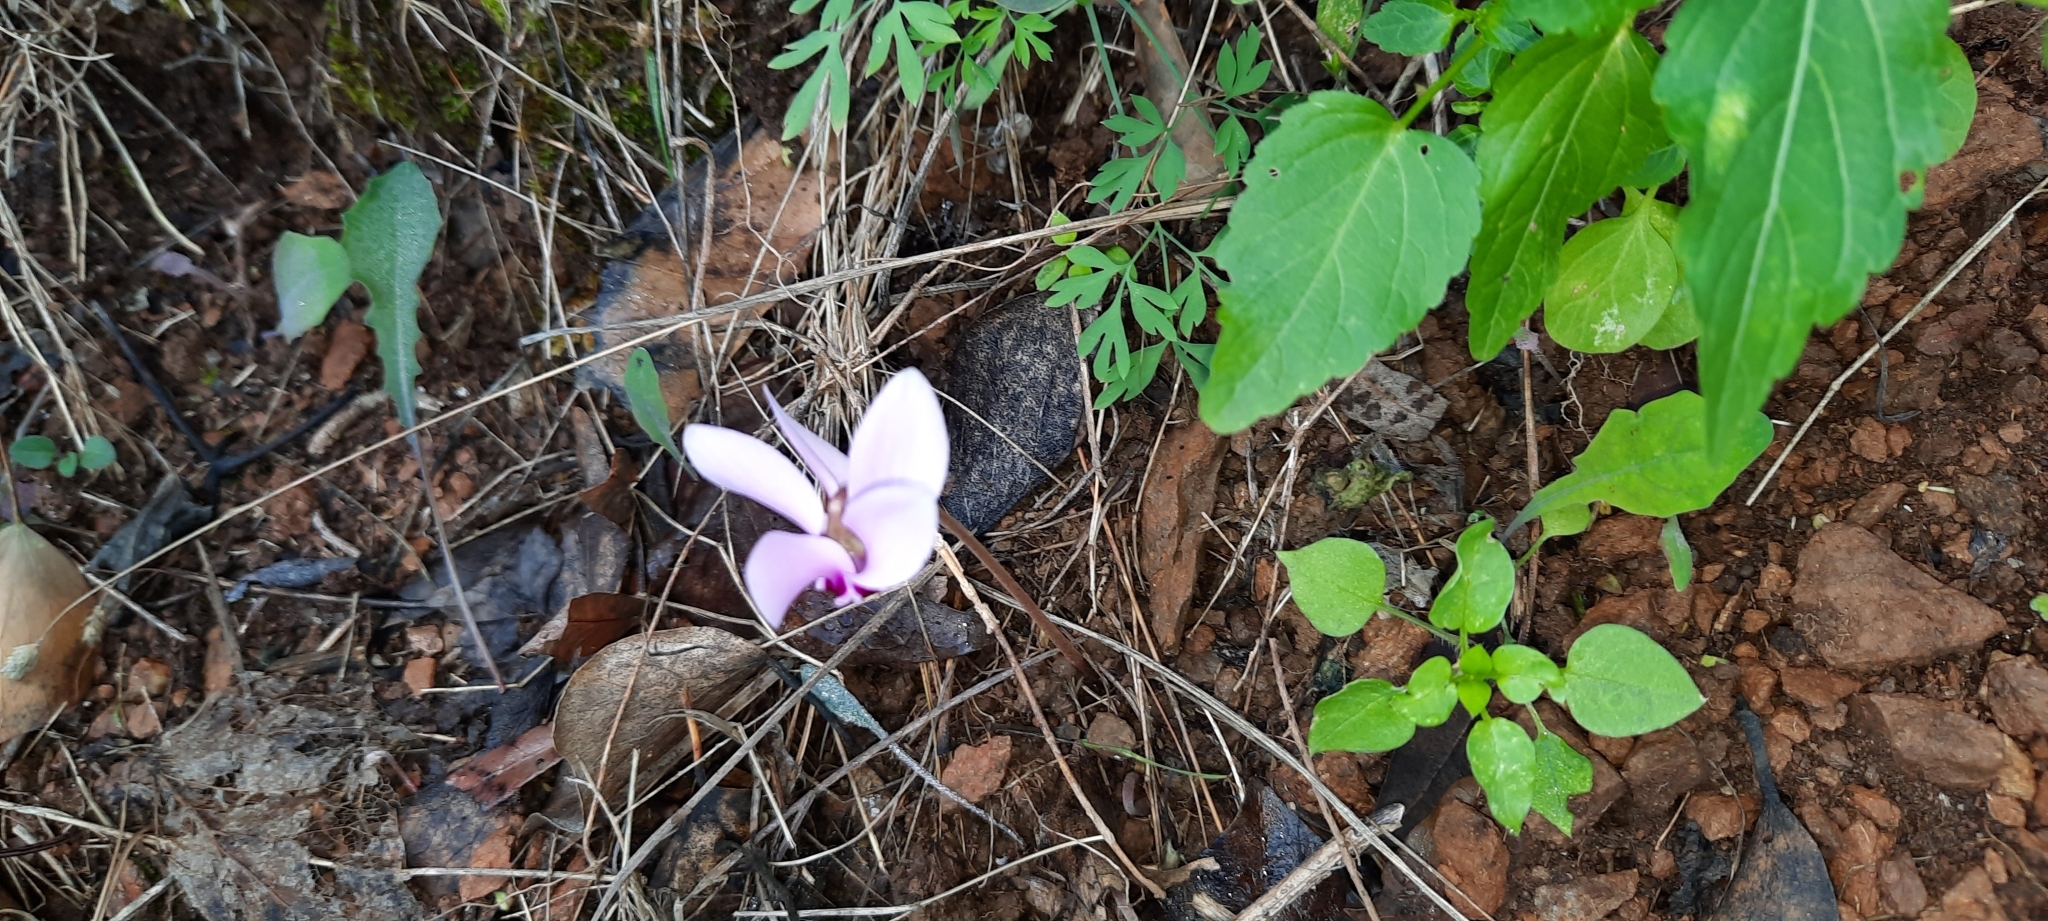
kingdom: Plantae
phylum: Tracheophyta
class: Magnoliopsida
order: Ericales
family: Primulaceae
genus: Cyclamen
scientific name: Cyclamen hederifolium
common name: Sowbread
